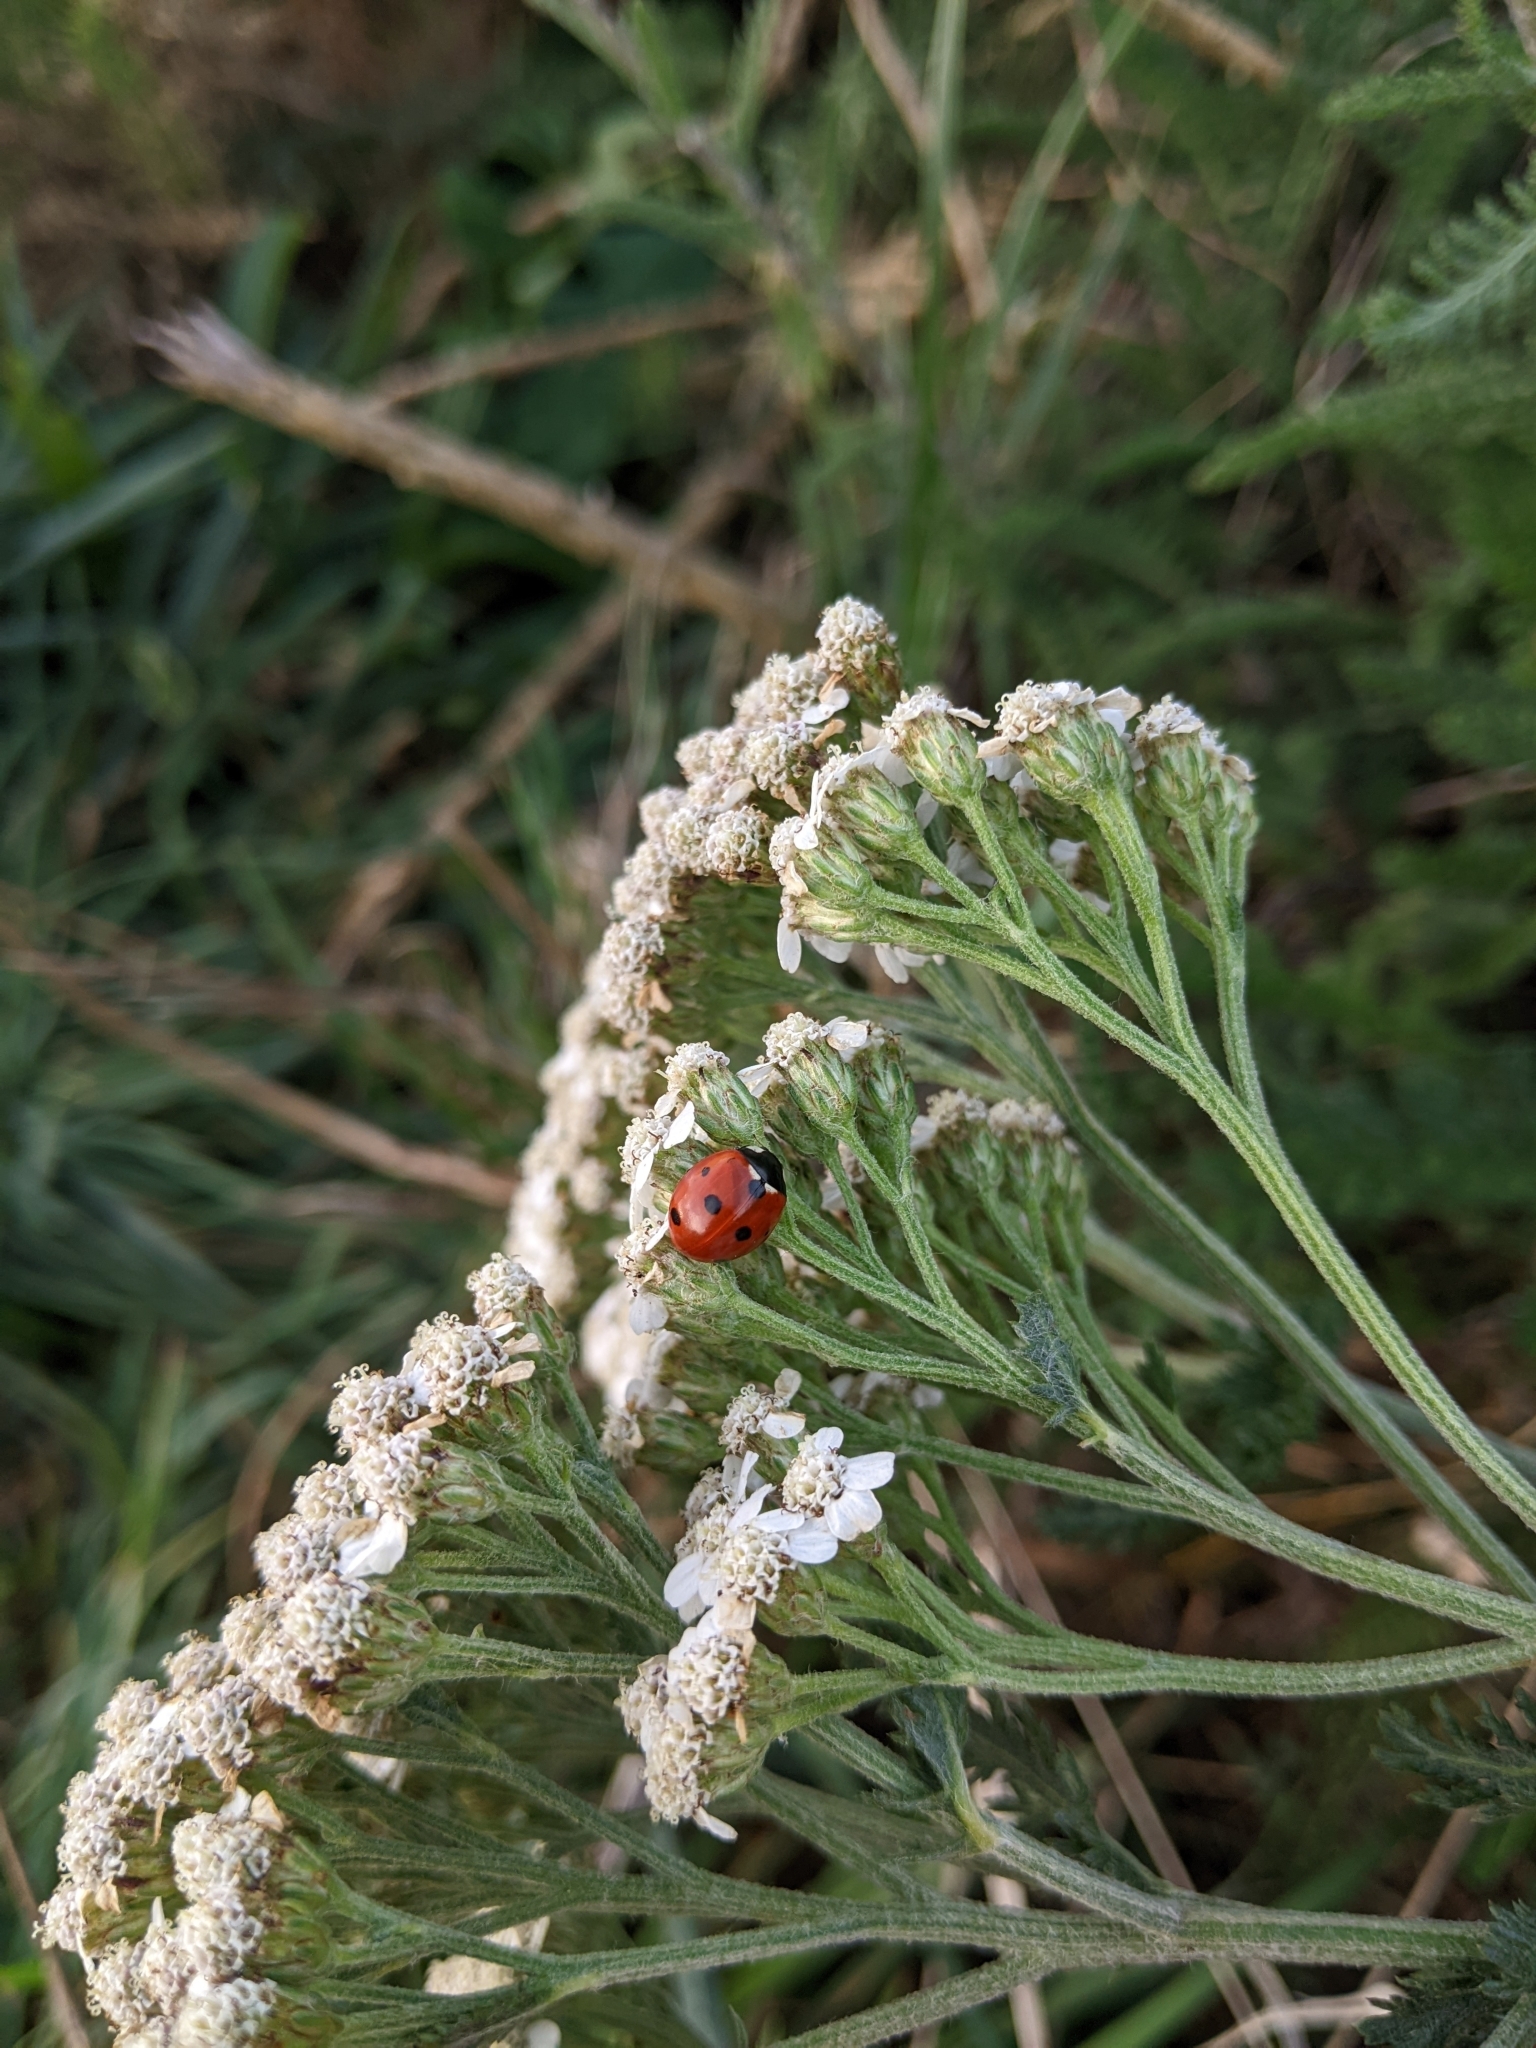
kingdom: Animalia
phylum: Arthropoda
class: Insecta
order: Coleoptera
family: Coccinellidae
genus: Coccinella
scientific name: Coccinella septempunctata
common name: Sevenspotted lady beetle
